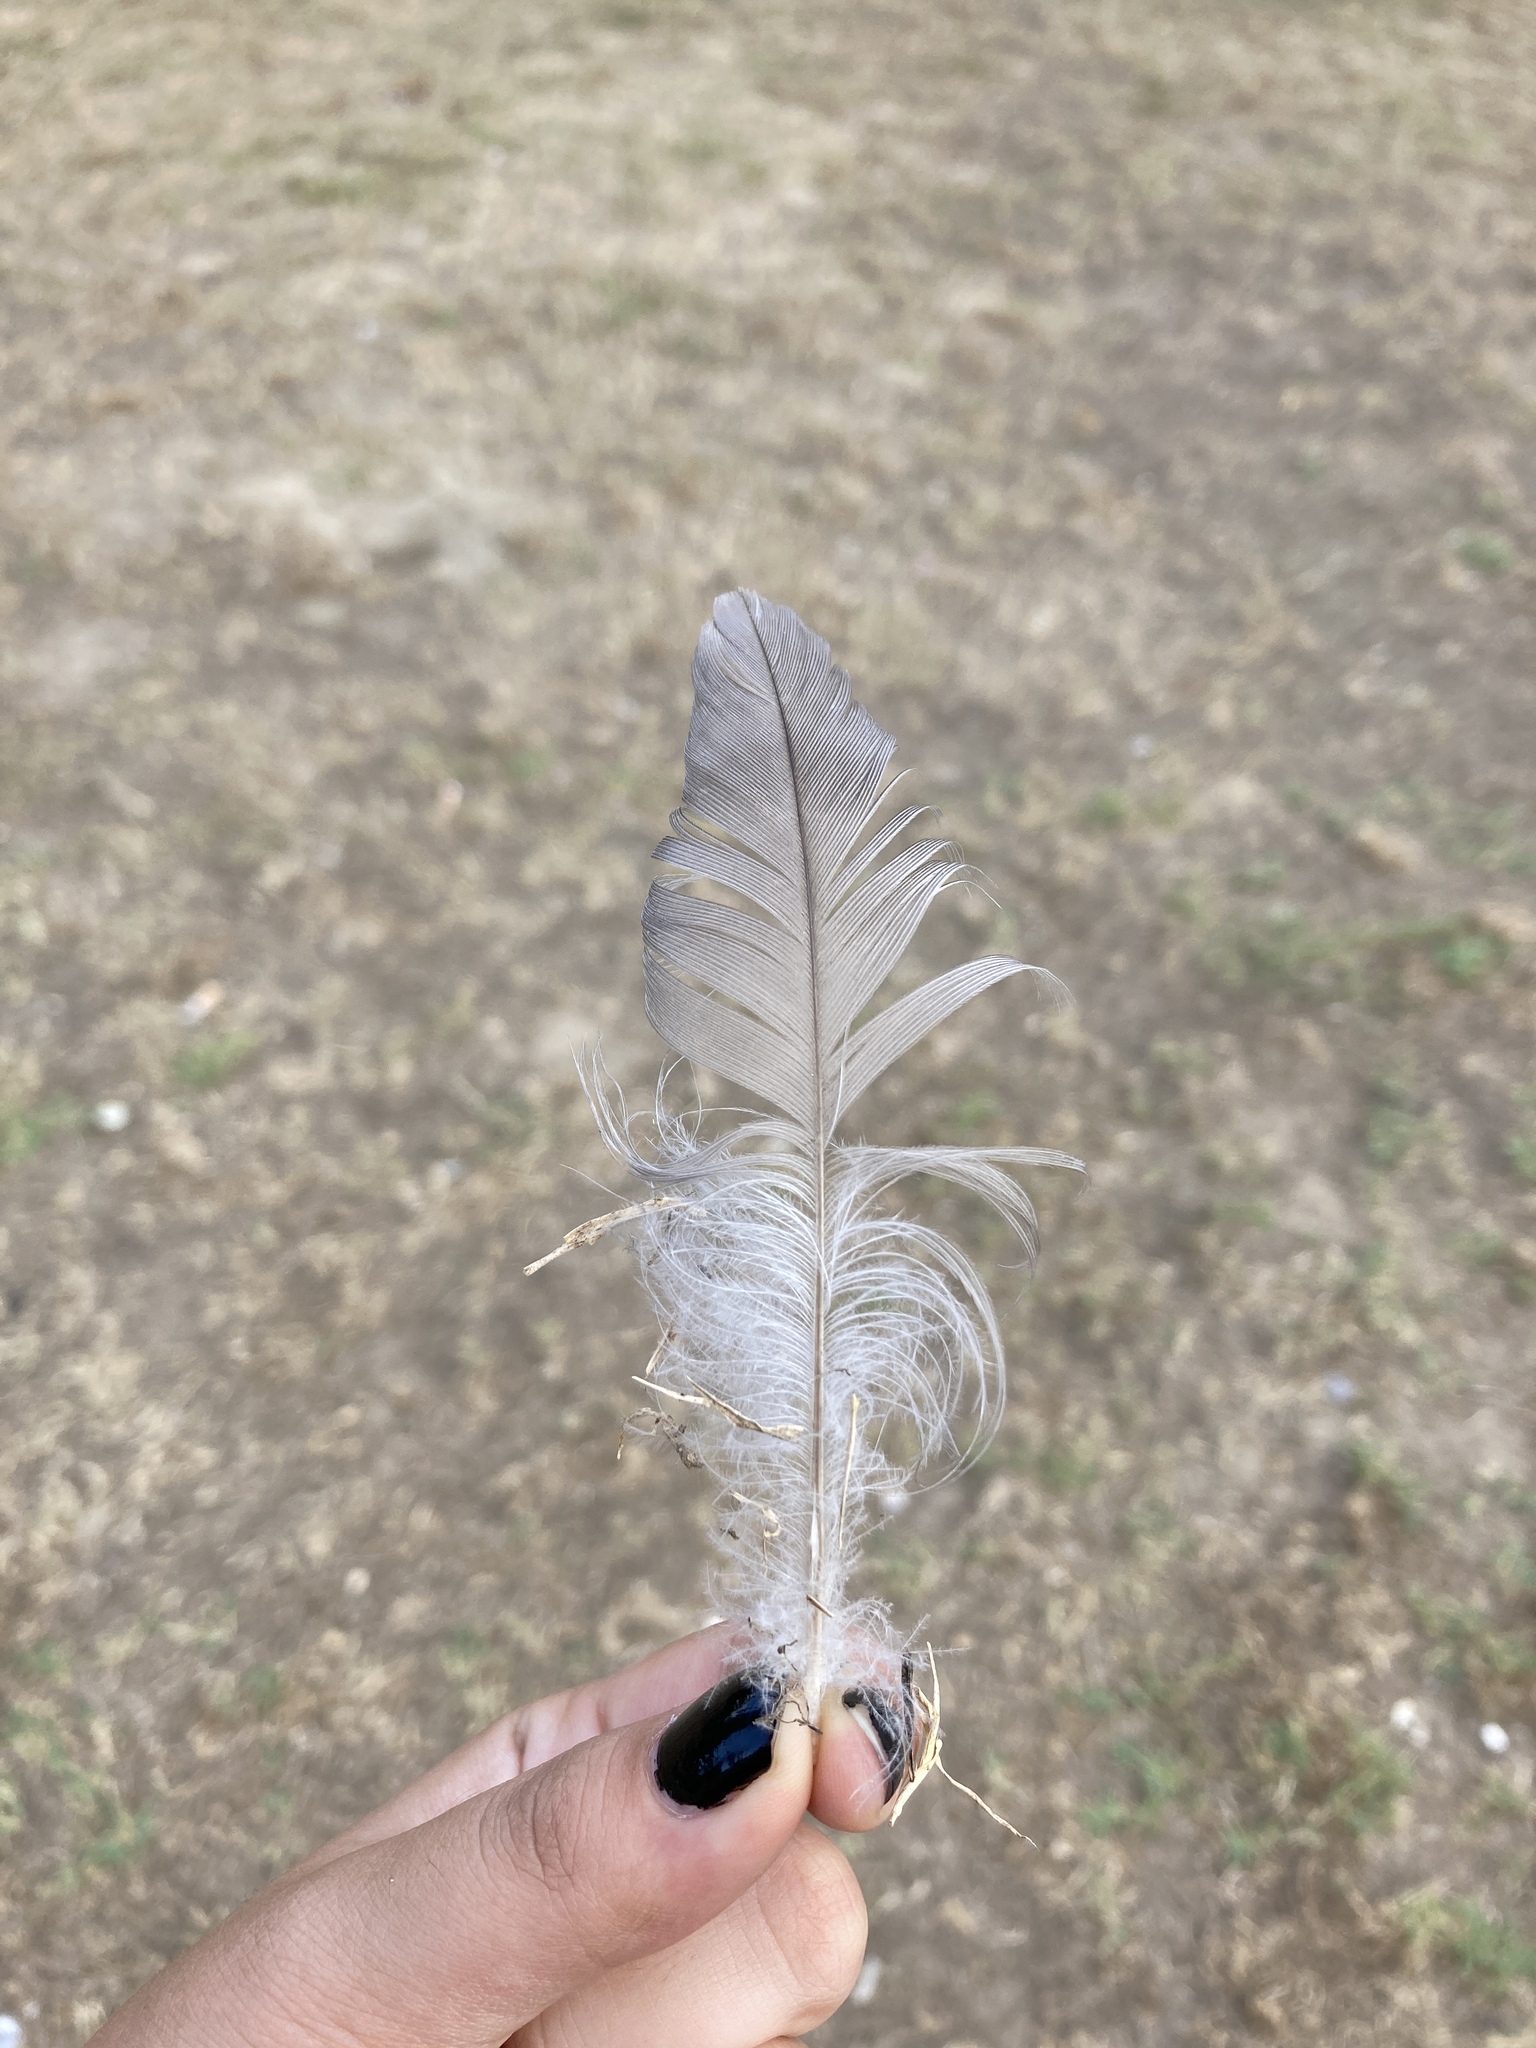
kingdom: Animalia
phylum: Chordata
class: Aves
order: Passeriformes
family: Corvidae
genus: Corvus
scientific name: Corvus cornix
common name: Hooded crow
